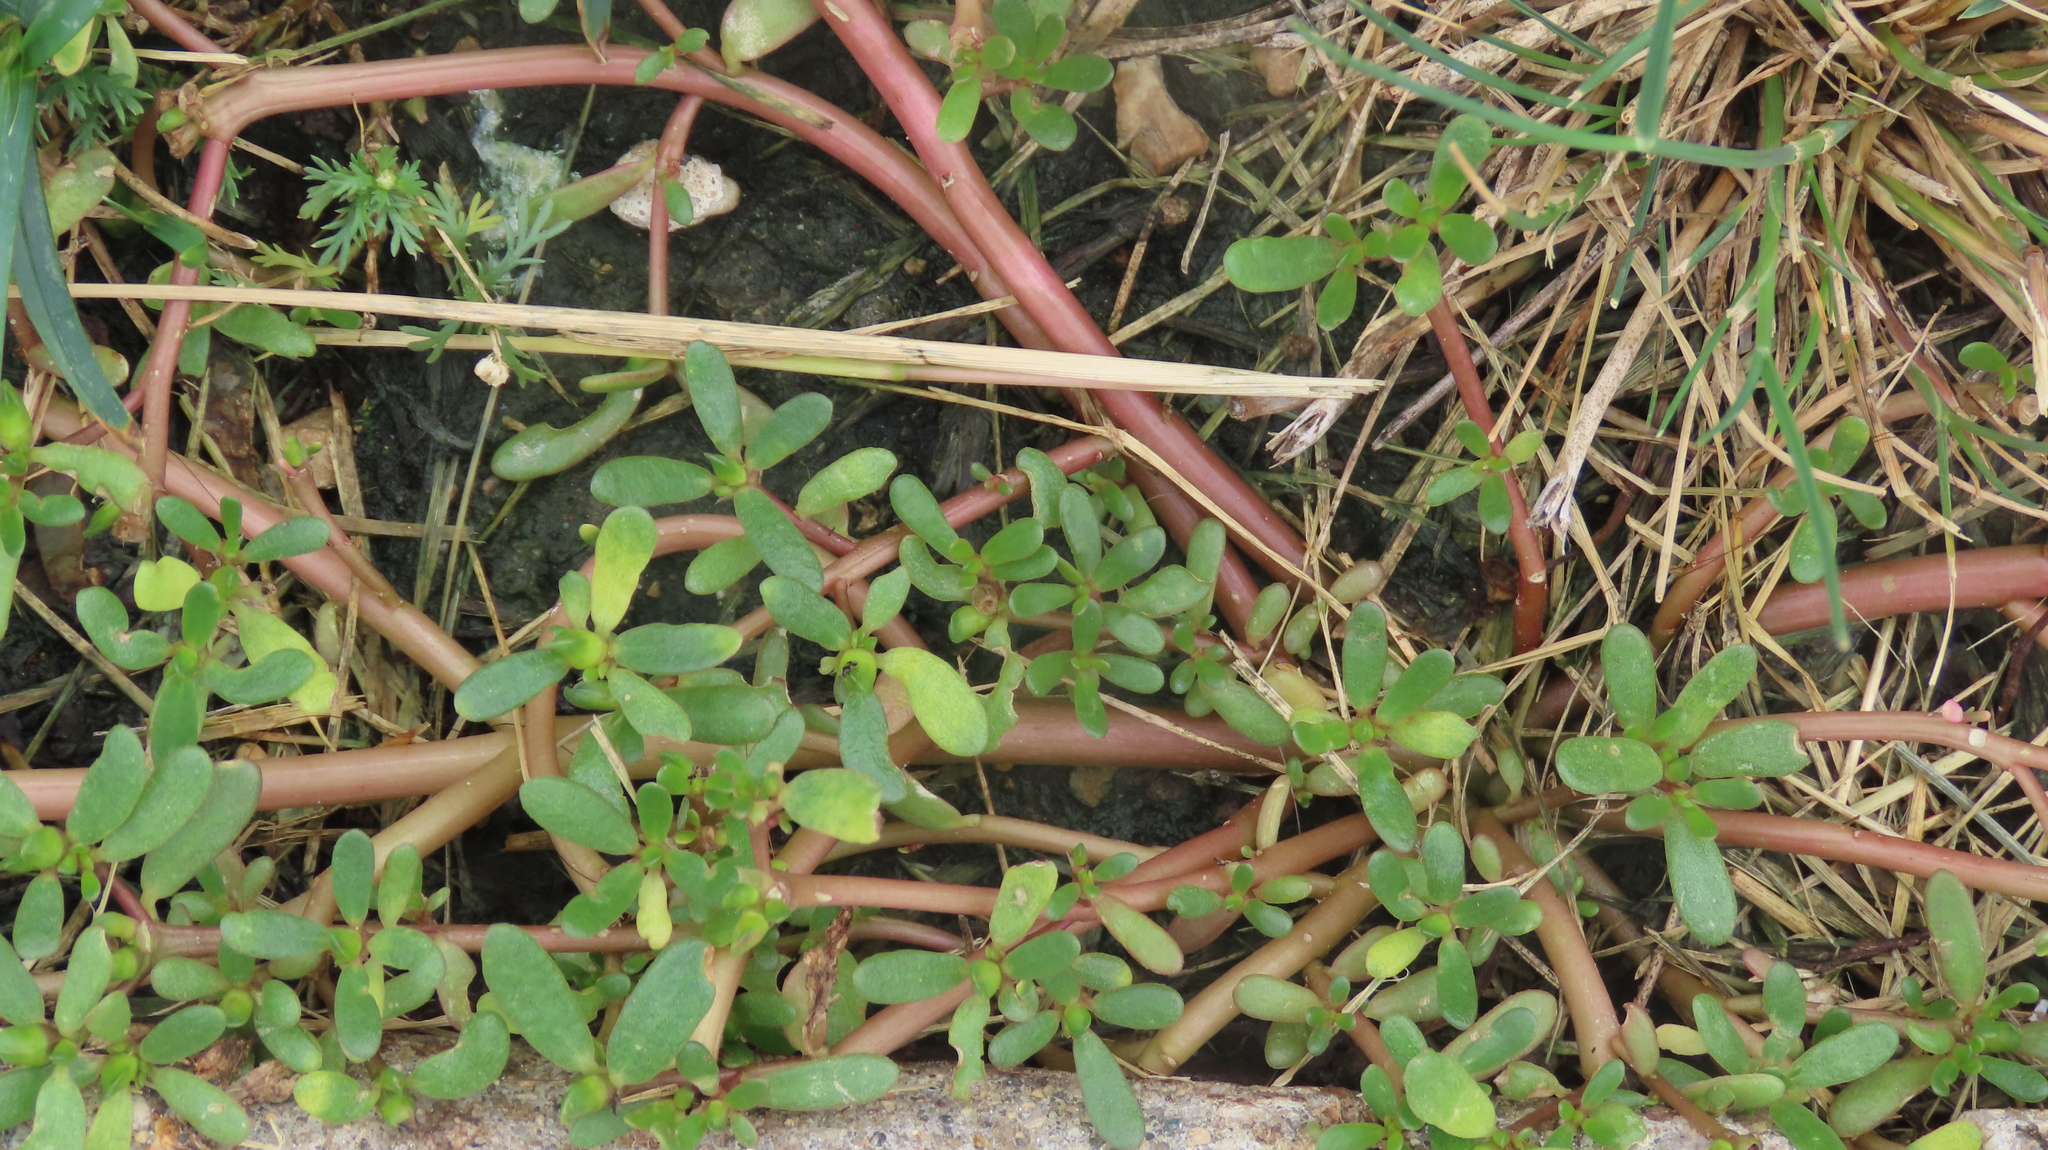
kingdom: Plantae
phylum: Tracheophyta
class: Magnoliopsida
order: Caryophyllales
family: Portulacaceae
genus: Portulaca
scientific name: Portulaca oleracea
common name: Common purslane
